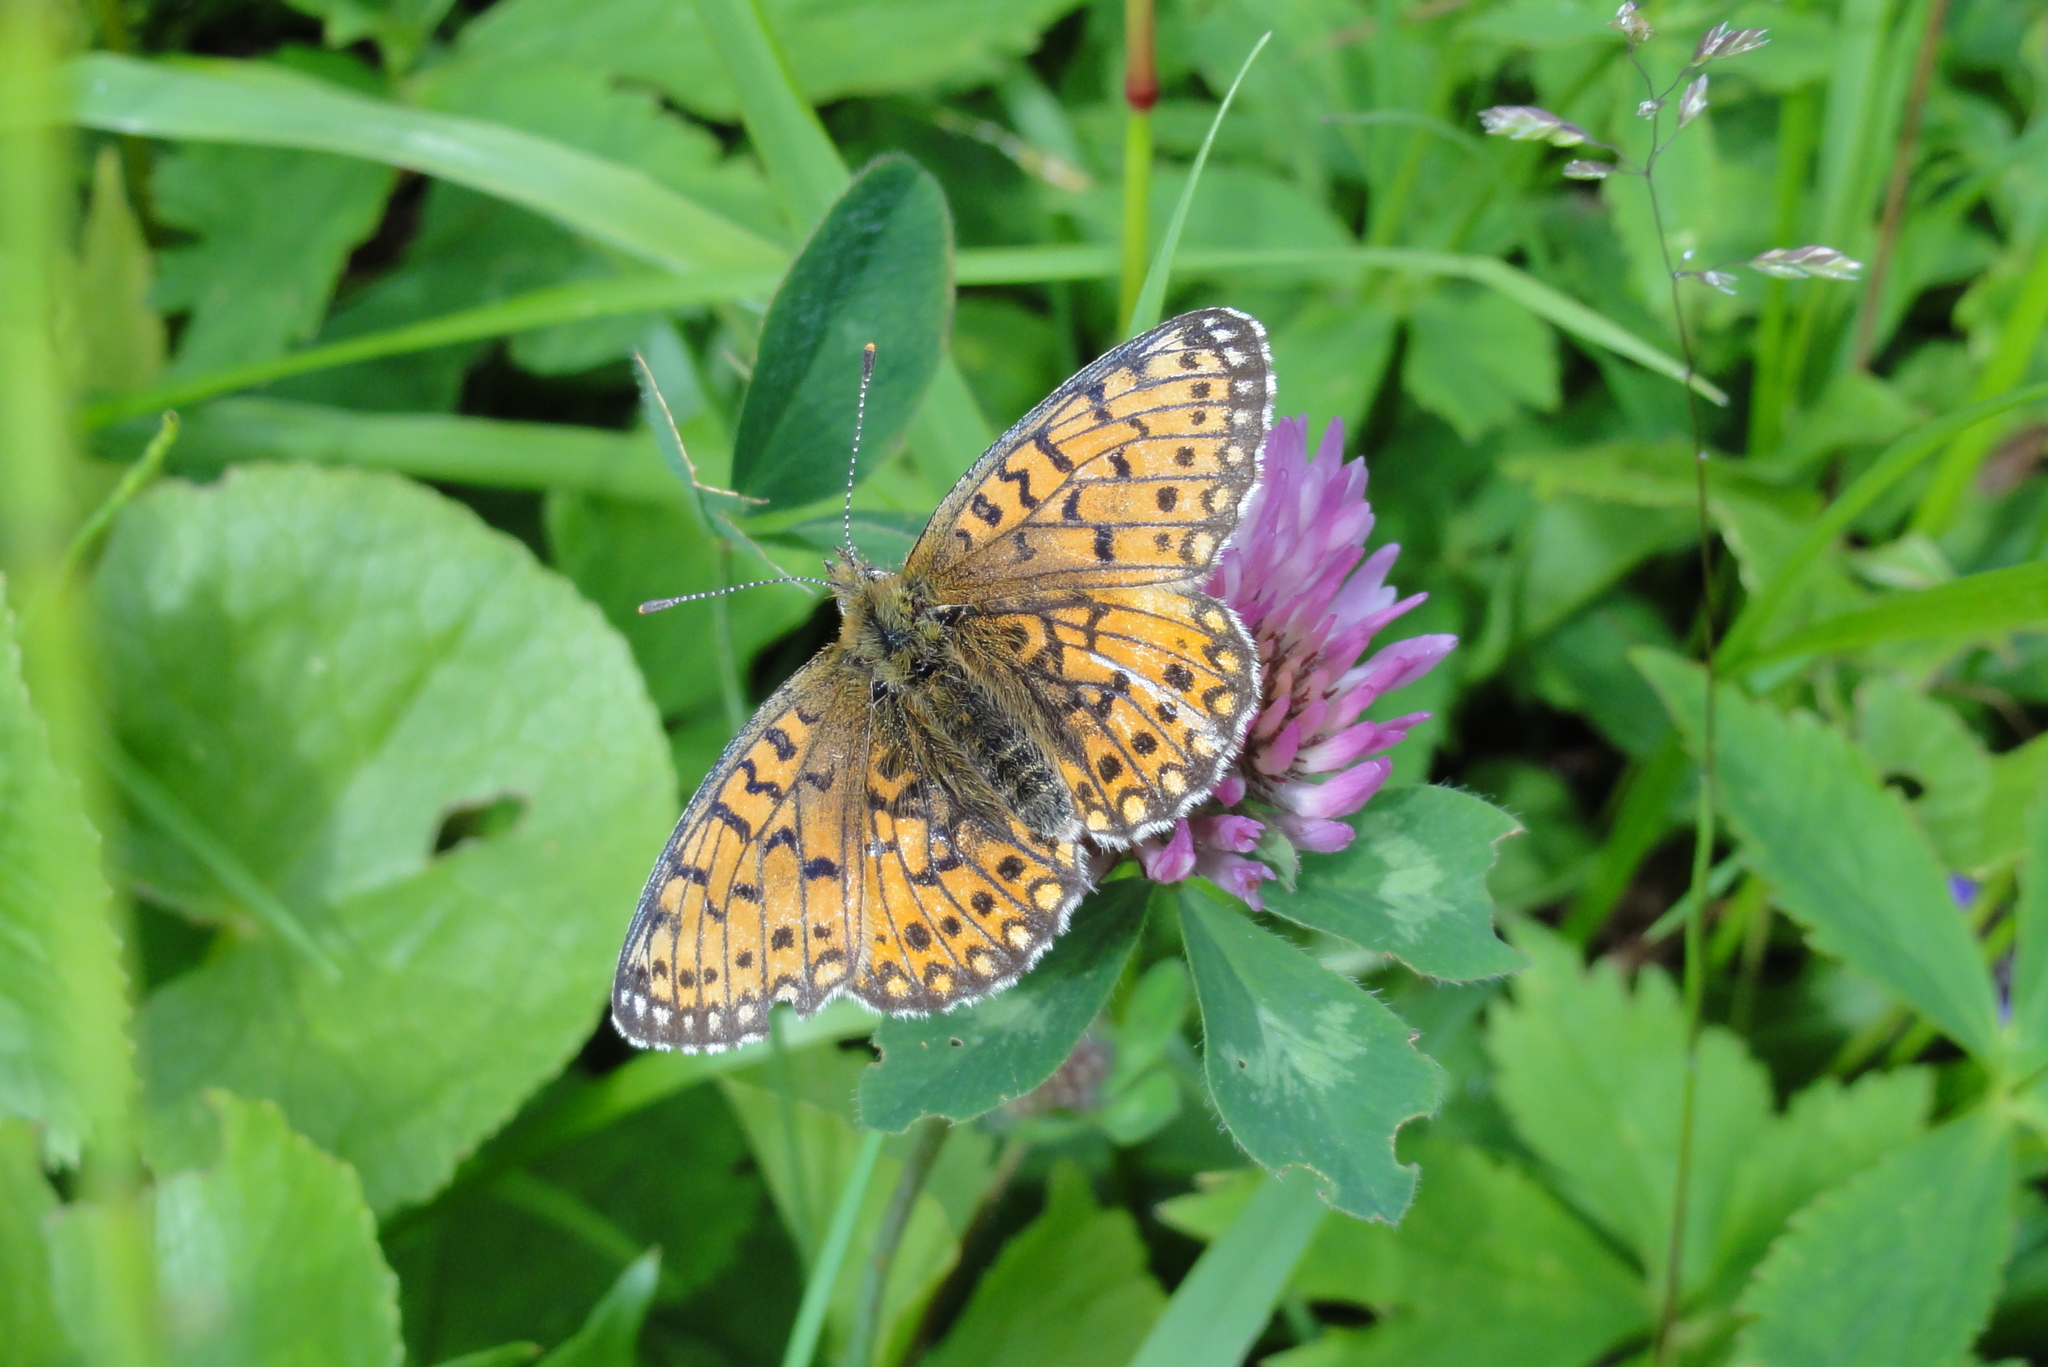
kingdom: Animalia
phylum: Arthropoda
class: Insecta
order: Lepidoptera
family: Nymphalidae
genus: Boloria
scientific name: Boloria selene
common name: Small pearl-bordered fritillary
